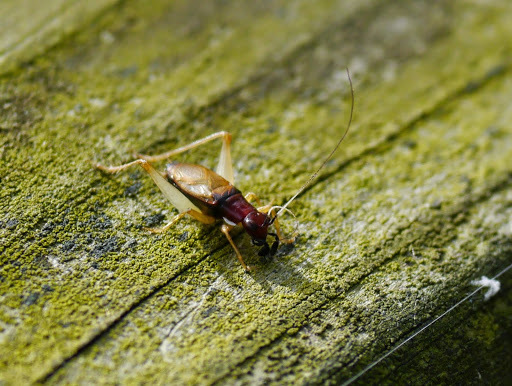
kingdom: Animalia
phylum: Arthropoda
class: Insecta
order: Orthoptera
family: Trigonidiidae
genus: Phyllopalpus
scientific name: Phyllopalpus pulchellus
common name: Handsome trig
